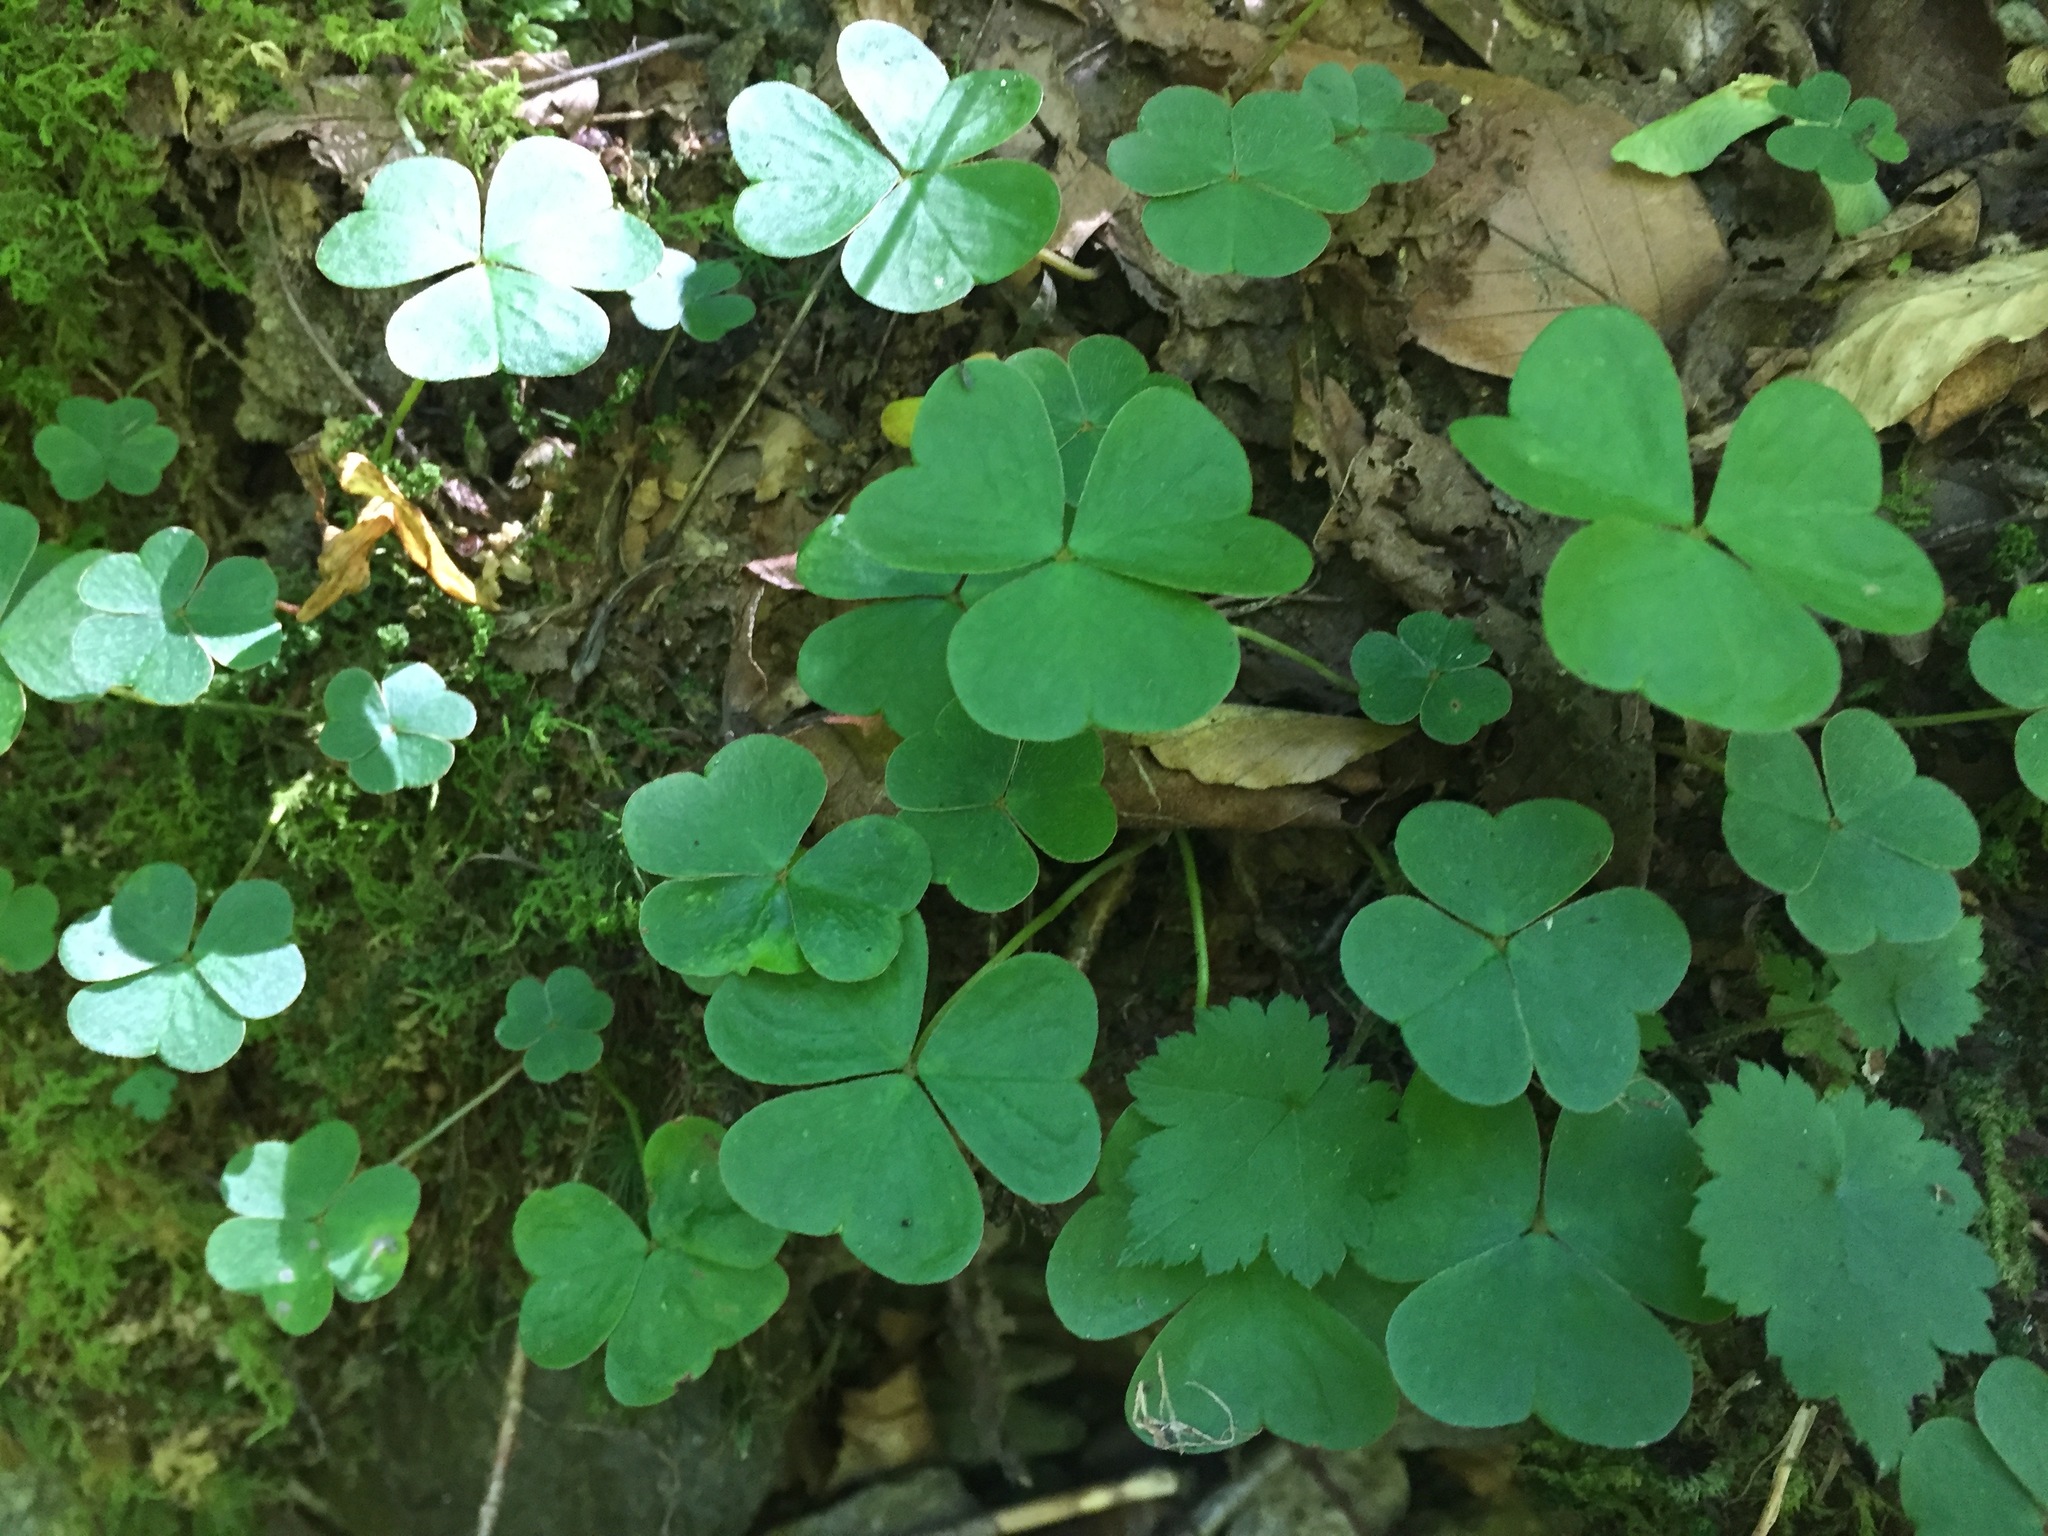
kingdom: Plantae
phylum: Tracheophyta
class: Magnoliopsida
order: Oxalidales
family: Oxalidaceae
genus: Oxalis
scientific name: Oxalis montana
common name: American wood-sorrel
